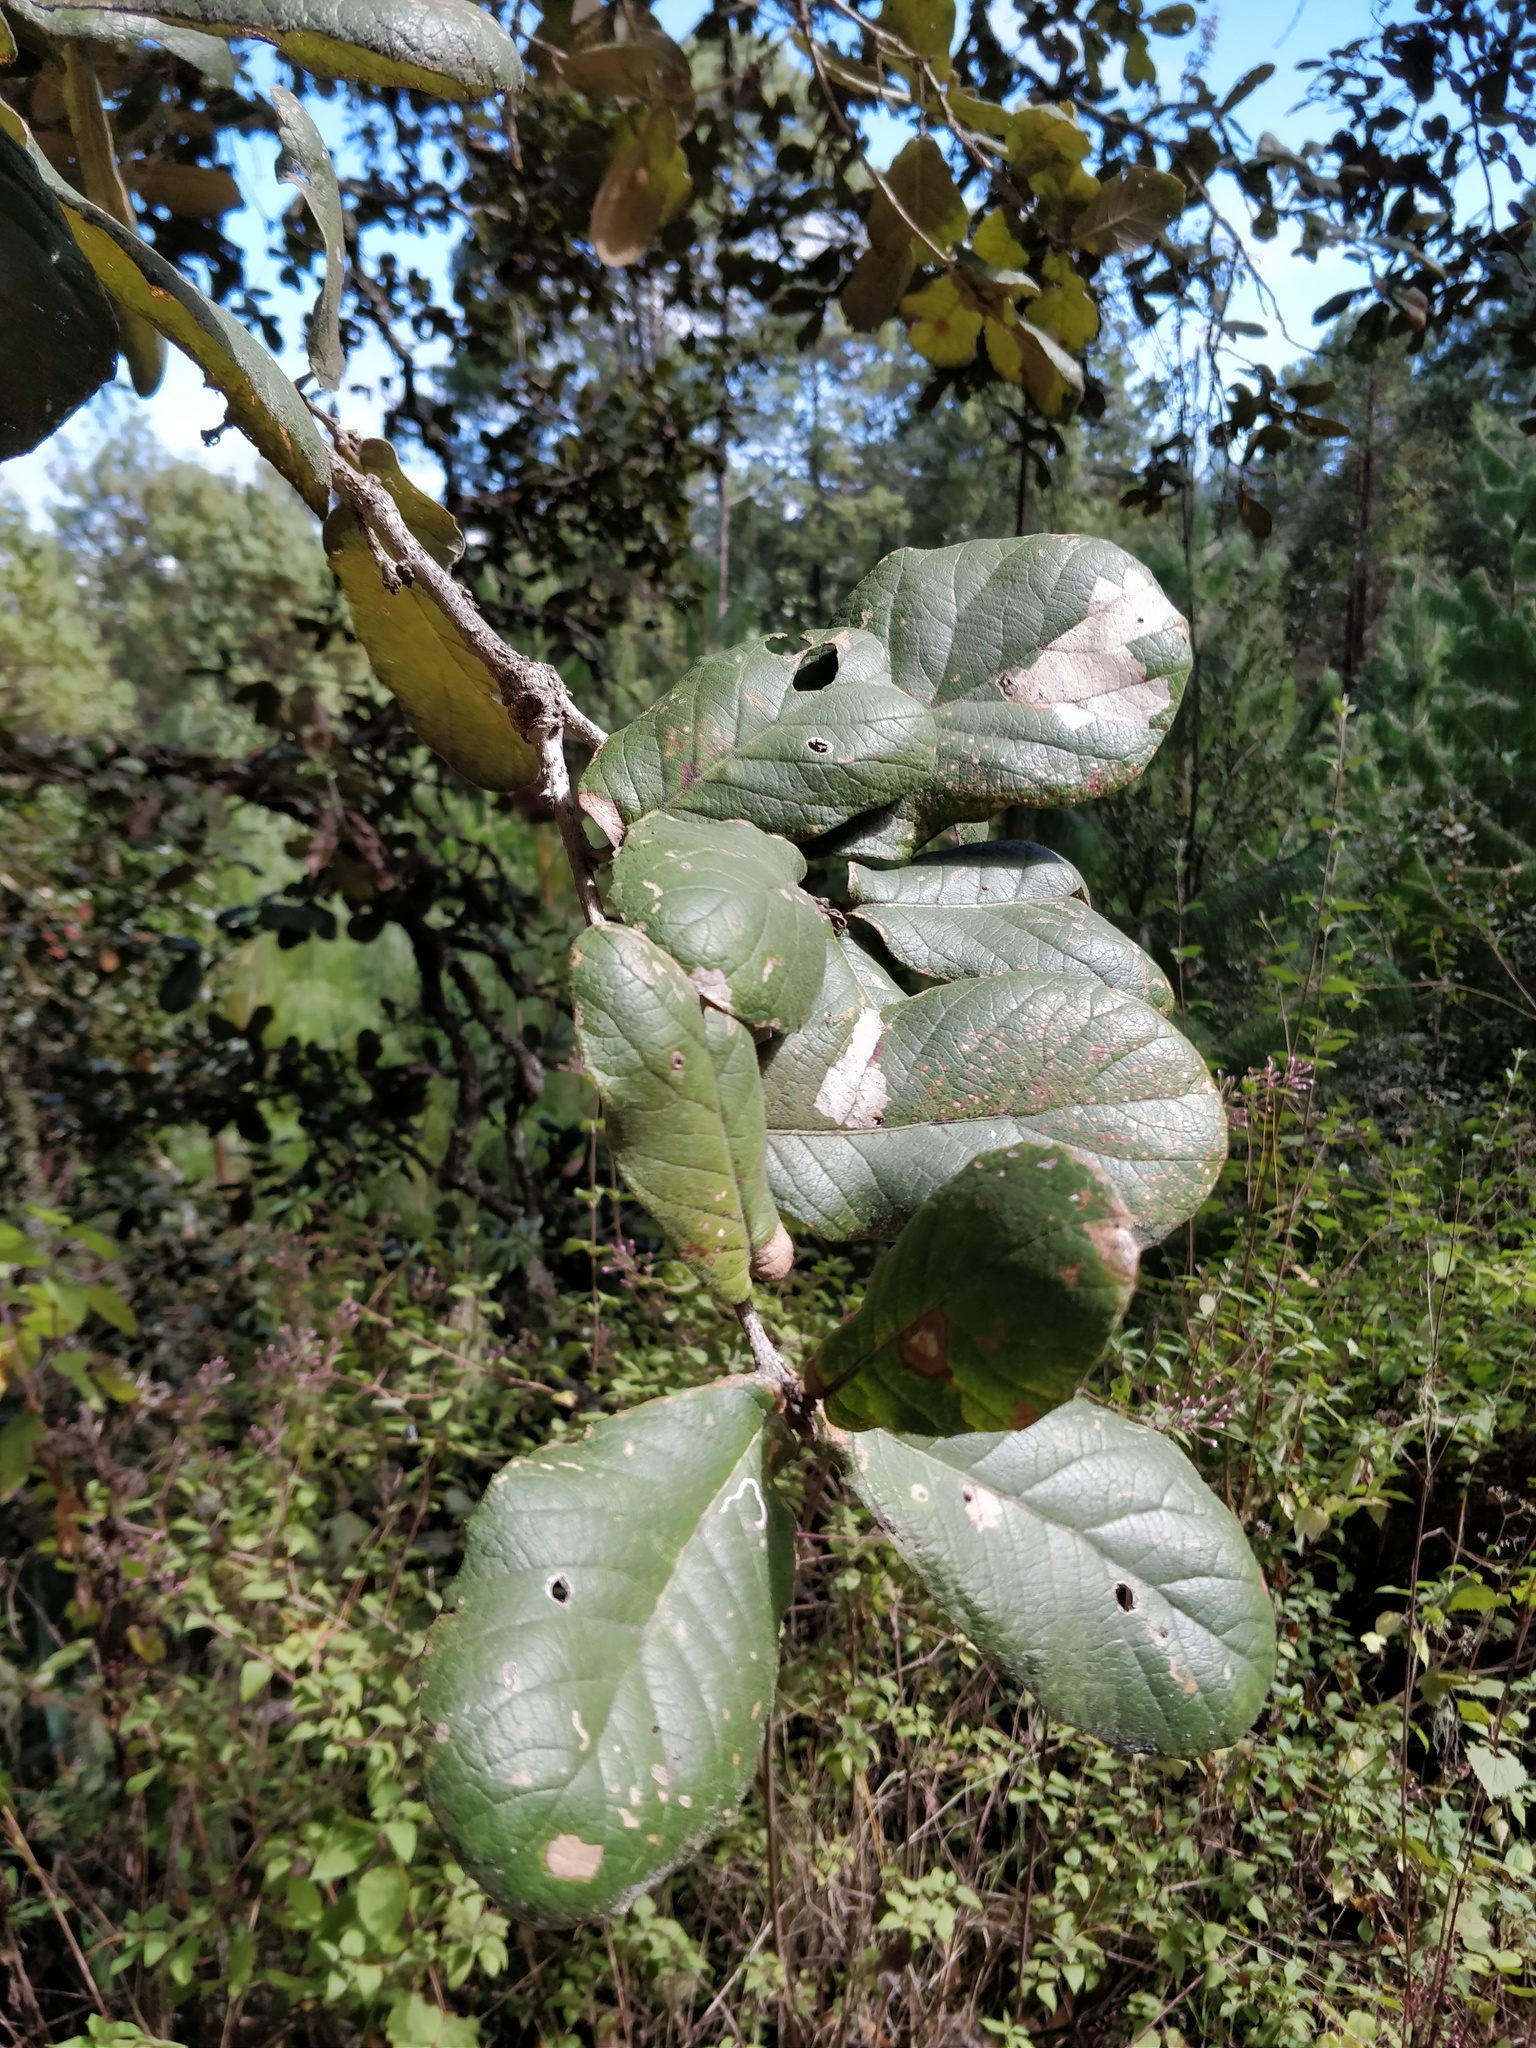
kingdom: Plantae
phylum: Tracheophyta
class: Magnoliopsida
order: Fagales
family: Fagaceae
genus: Quercus
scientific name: Quercus rugosa
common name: Netleaf oak
